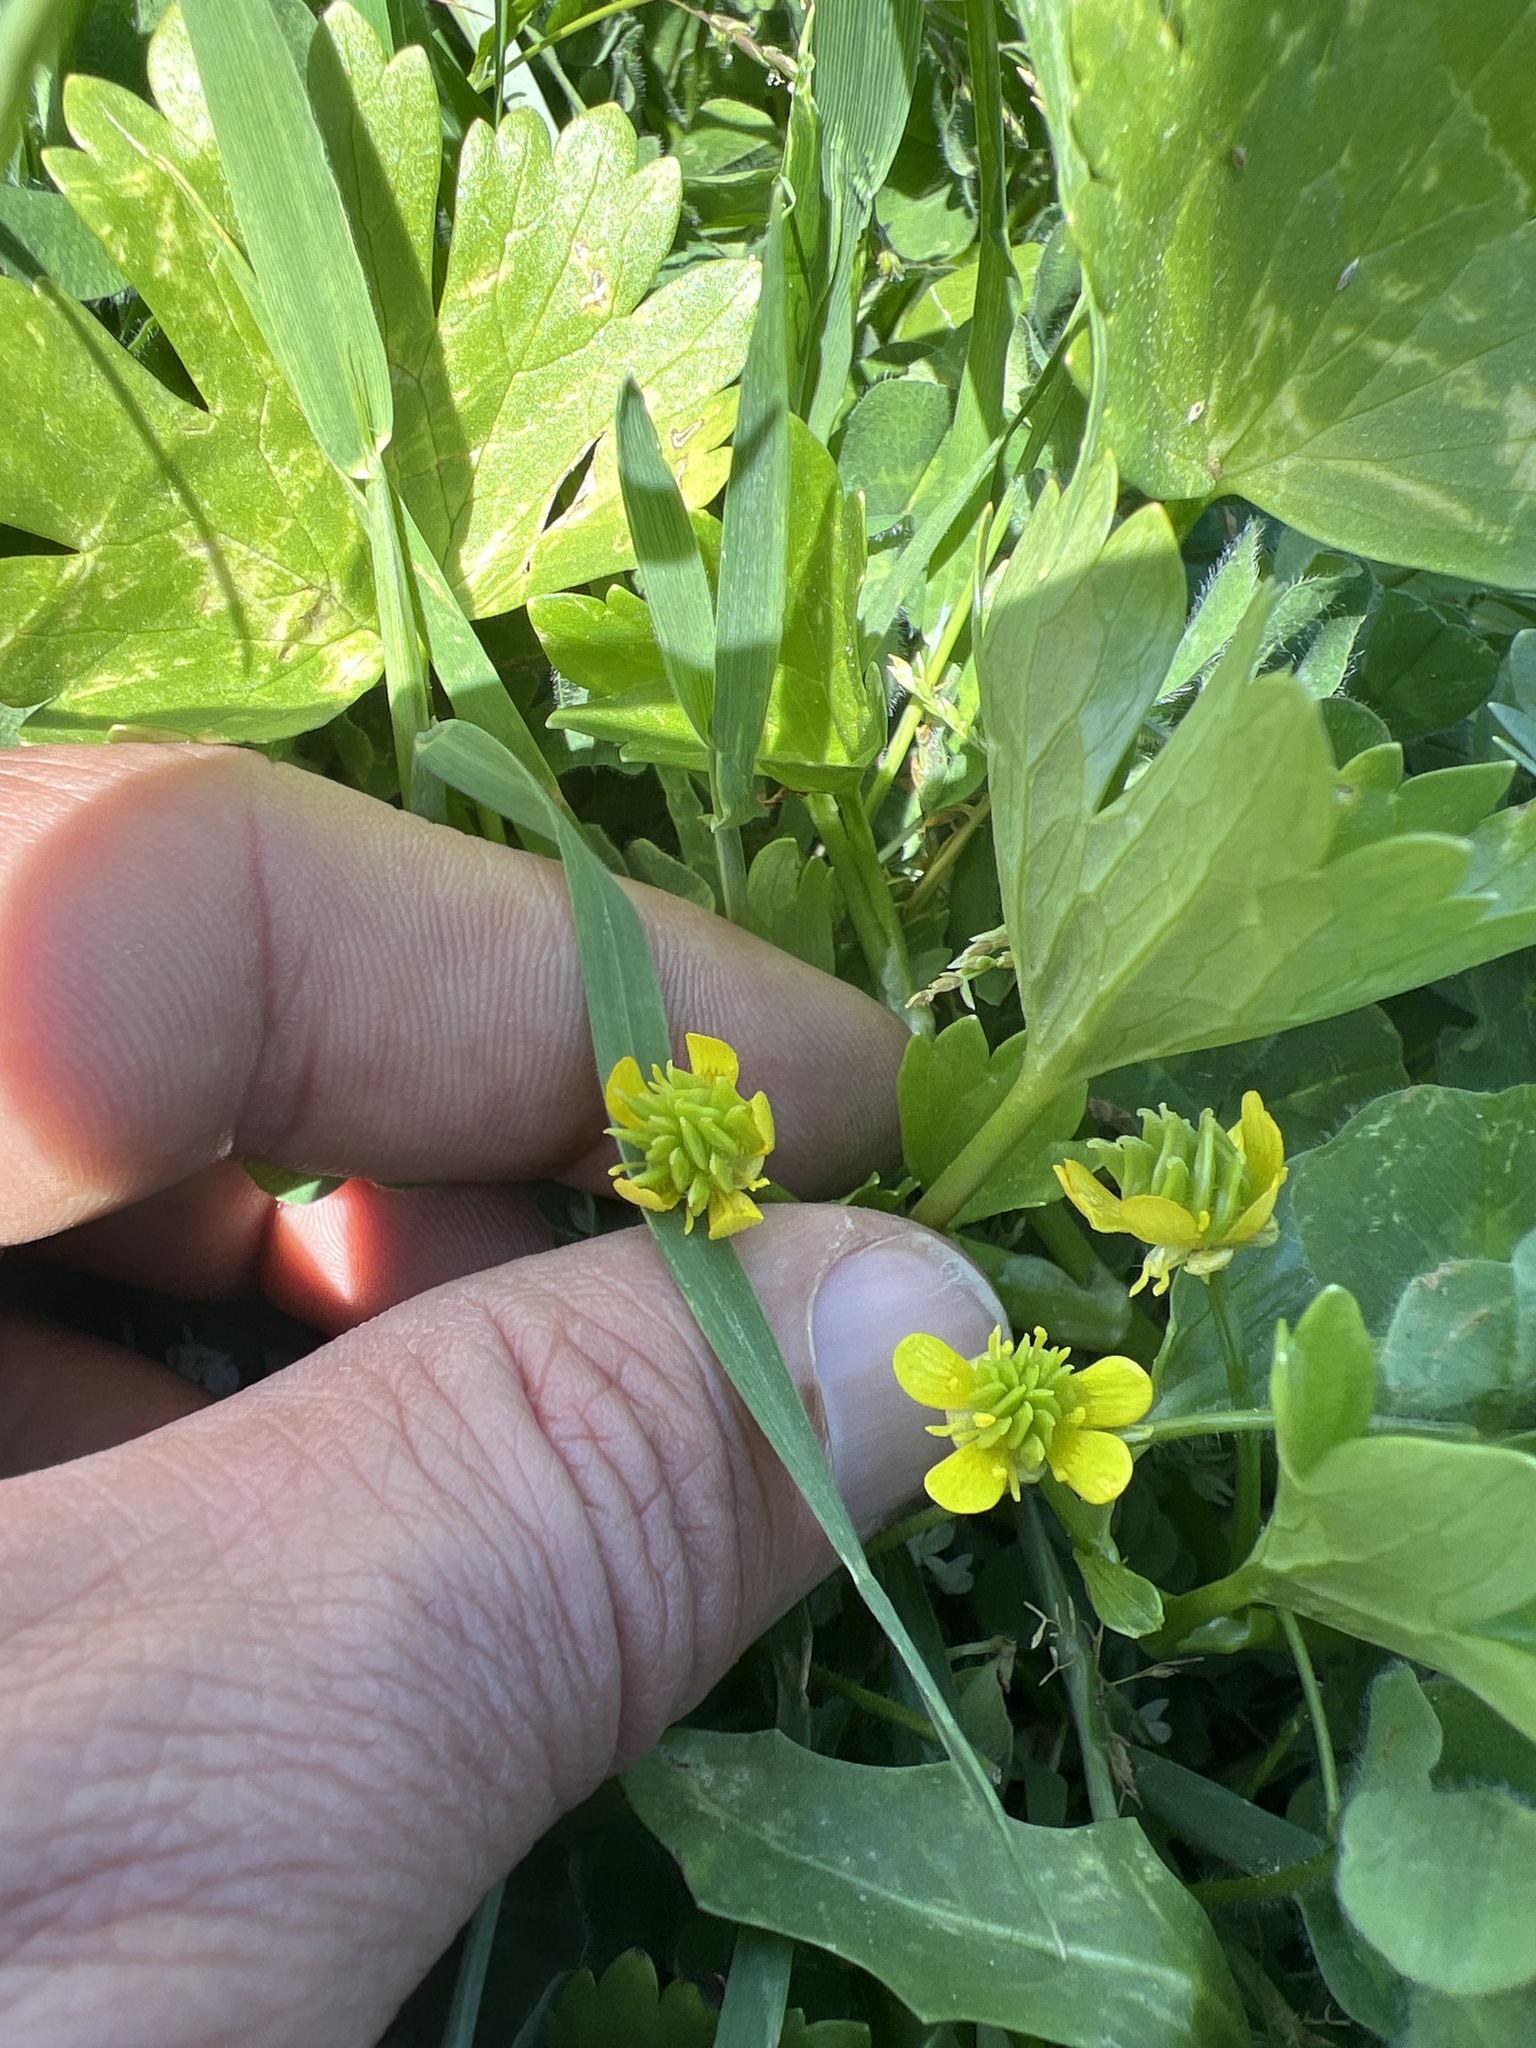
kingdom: Plantae
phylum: Tracheophyta
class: Magnoliopsida
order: Ranunculales
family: Ranunculaceae
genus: Ranunculus
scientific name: Ranunculus muricatus
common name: Rough-fruited buttercup
